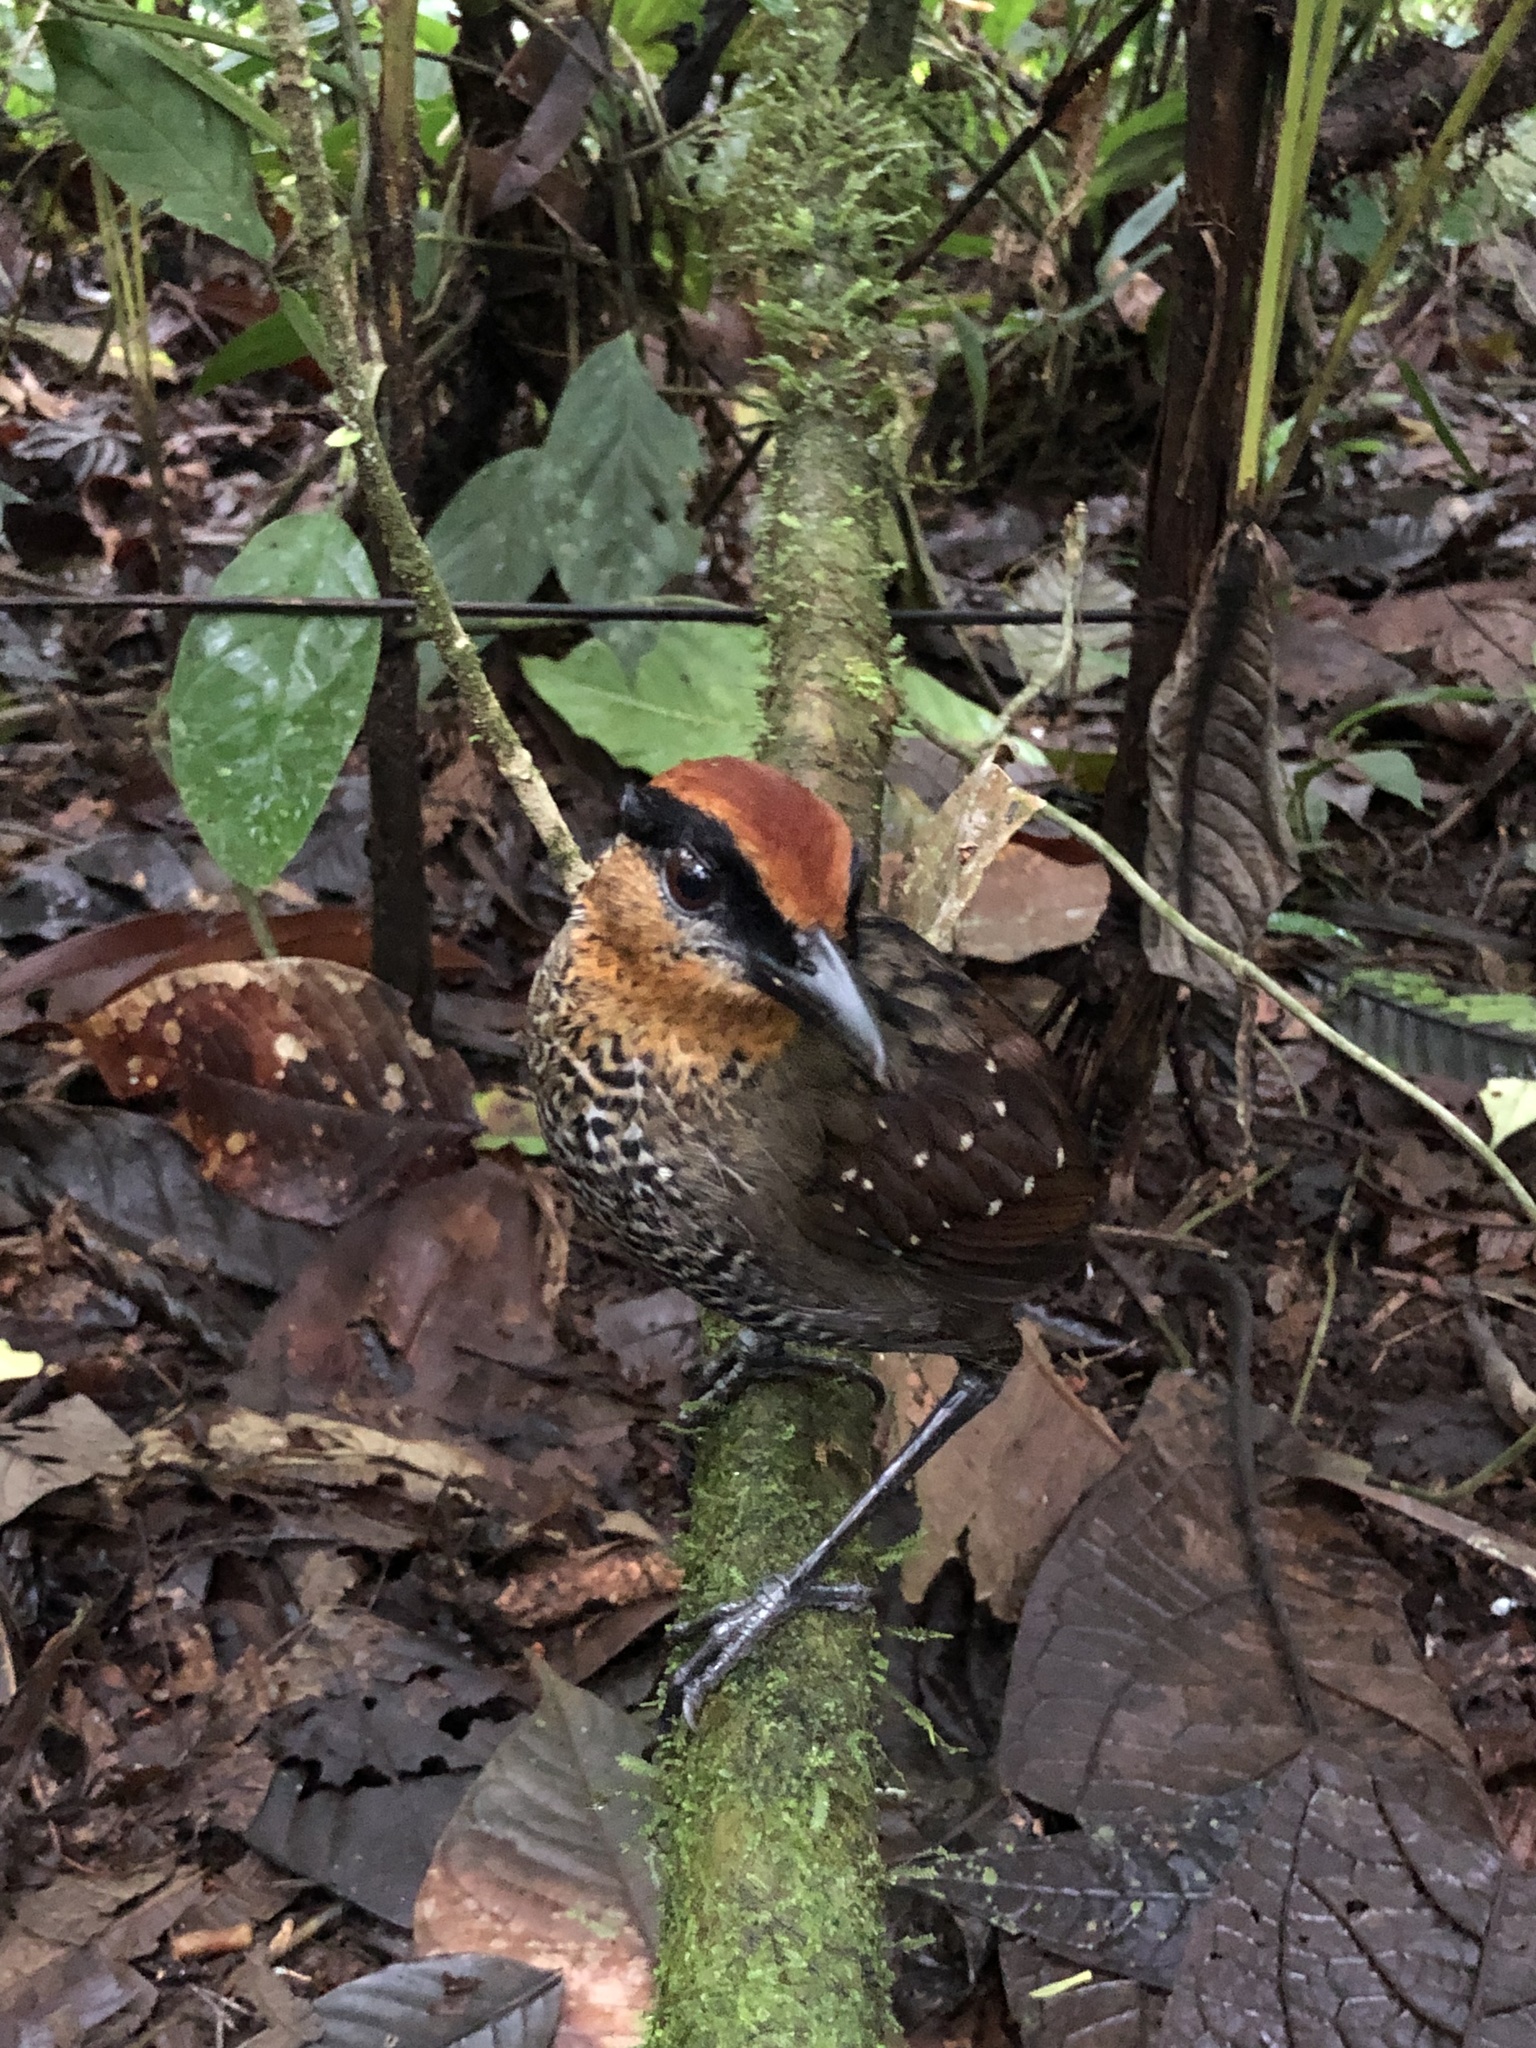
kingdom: Animalia
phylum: Chordata
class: Aves
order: Passeriformes
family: Conopophagidae
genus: Pittasoma
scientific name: Pittasoma rufopileatum
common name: Rufous-crowned antpitta
